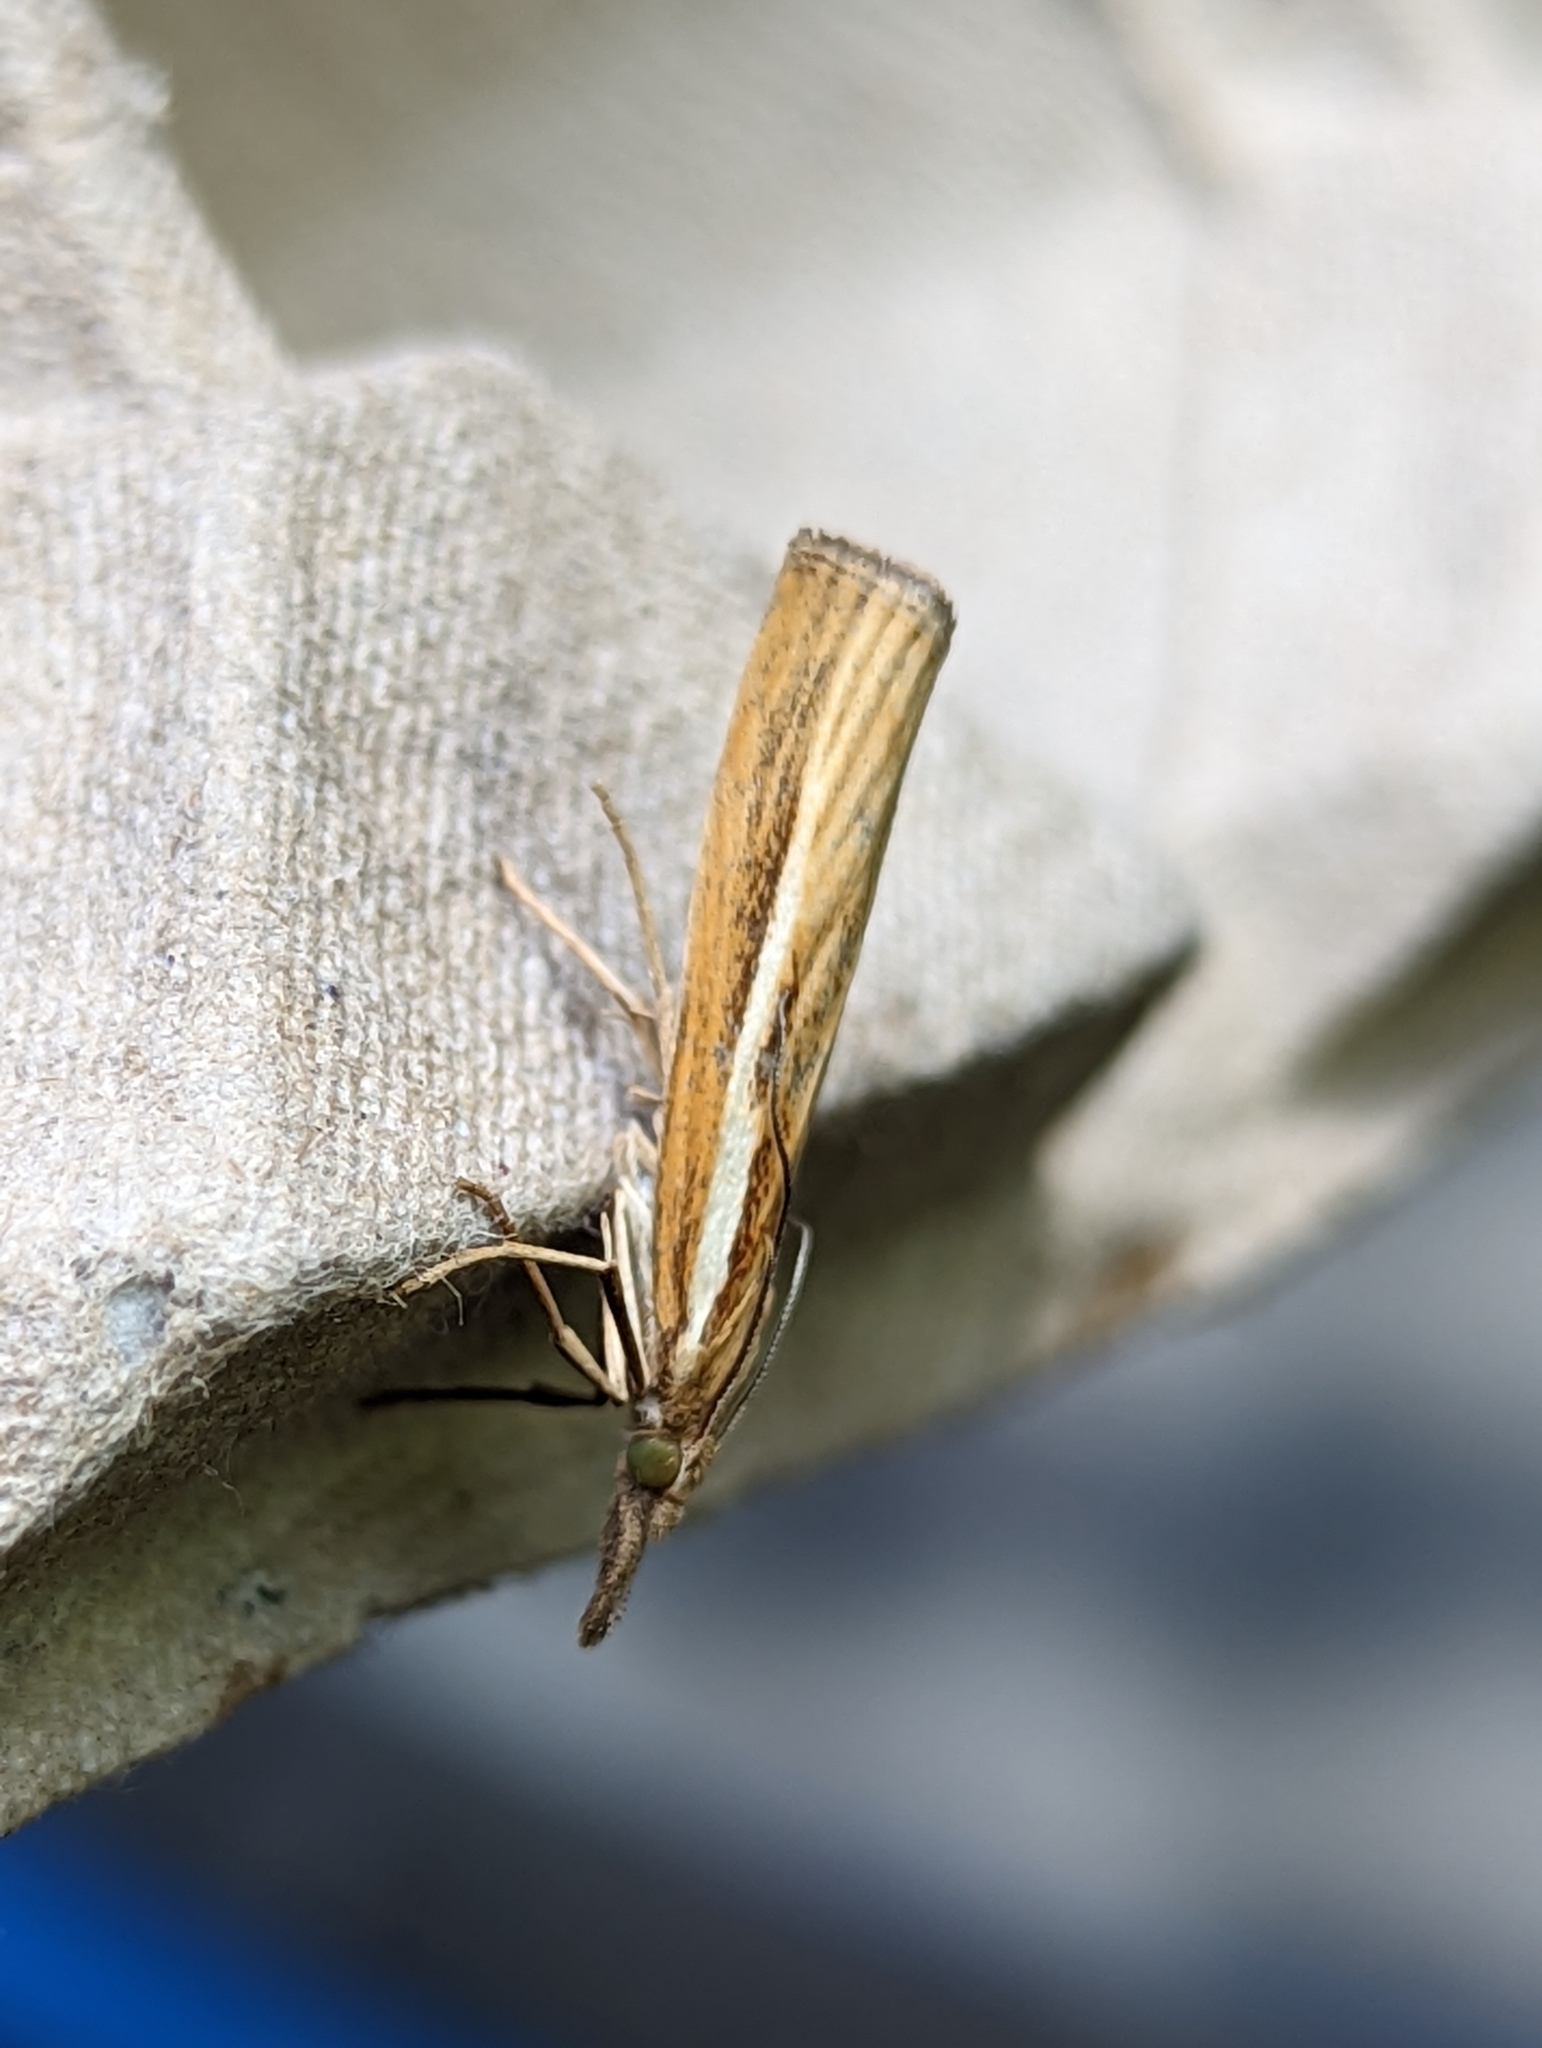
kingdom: Animalia
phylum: Arthropoda
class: Insecta
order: Lepidoptera
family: Crambidae
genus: Agriphila
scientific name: Agriphila tristellus
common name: Common grass-veneer
